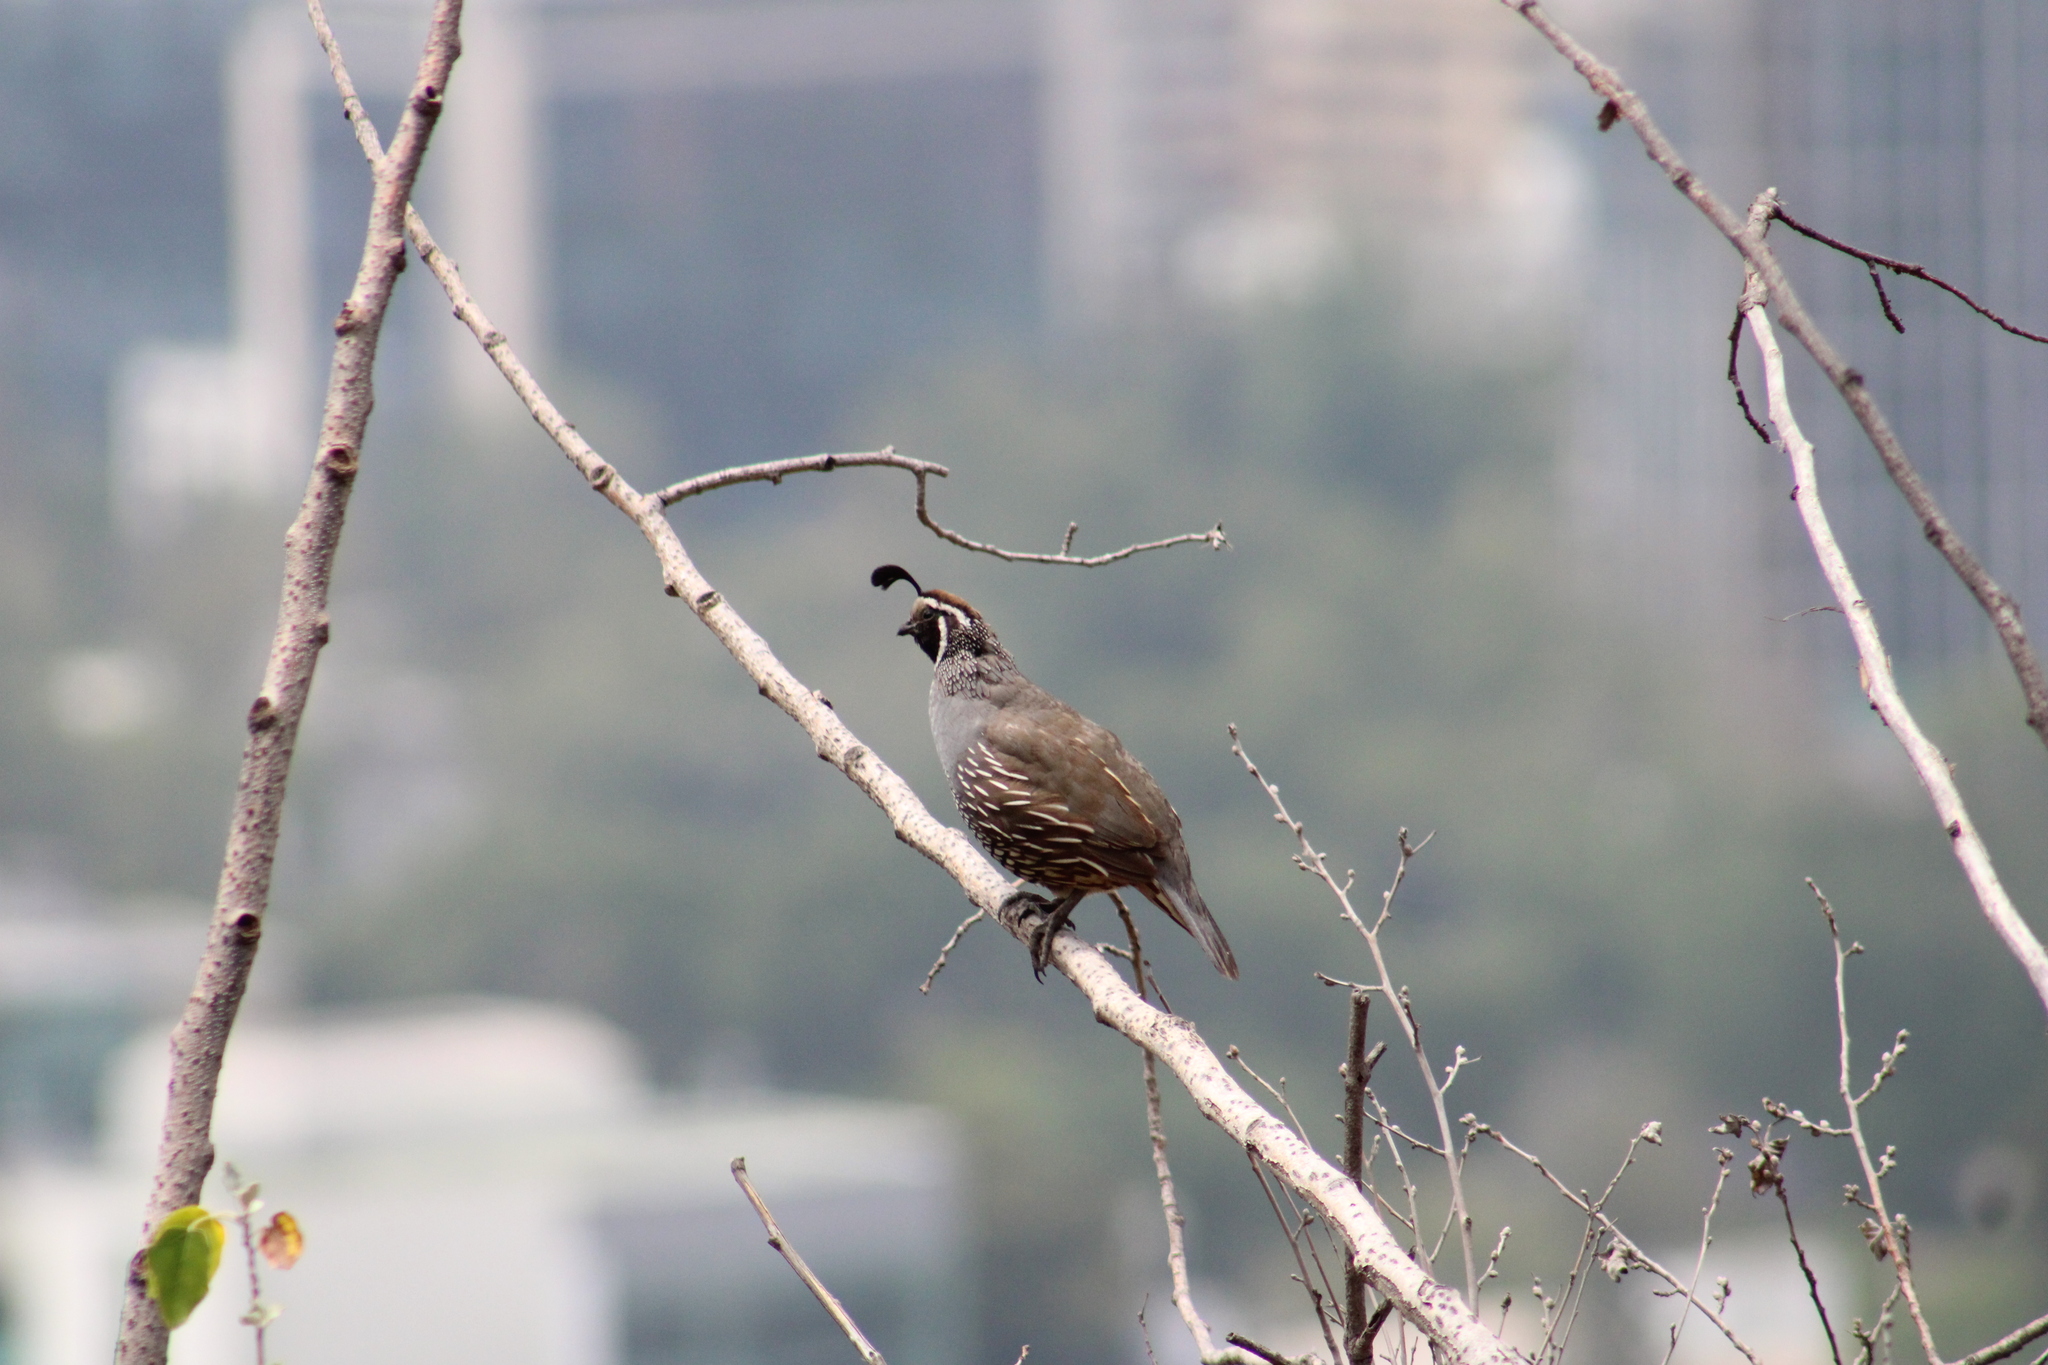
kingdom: Animalia
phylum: Chordata
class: Aves
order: Galliformes
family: Odontophoridae
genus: Callipepla
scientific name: Callipepla californica
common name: California quail
